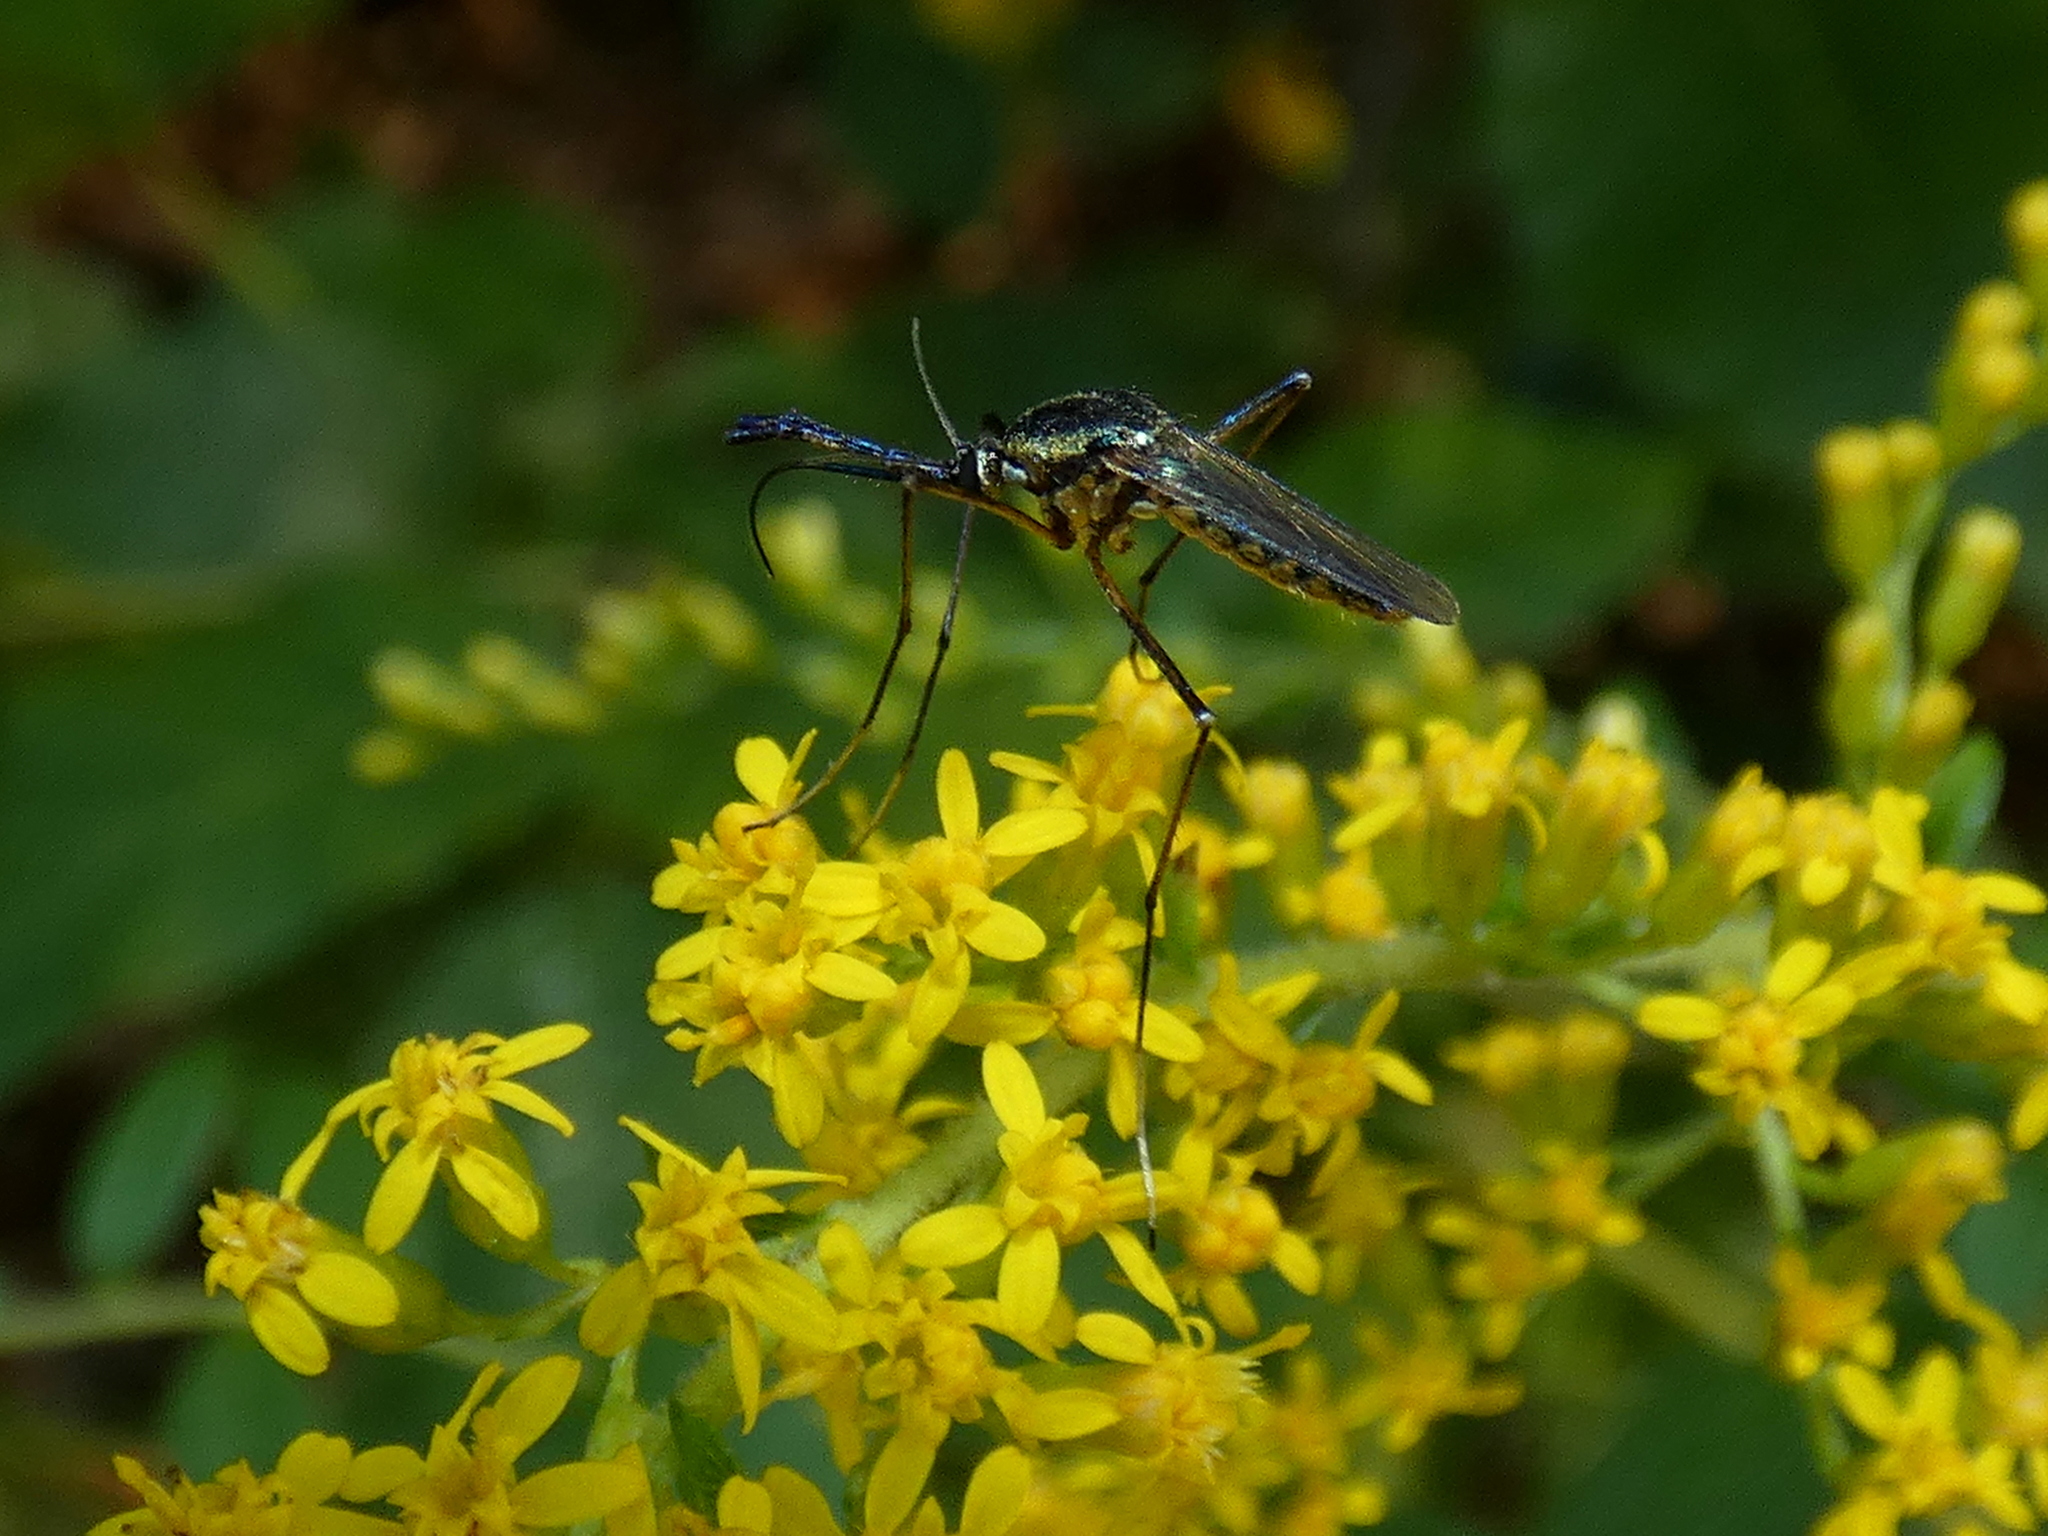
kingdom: Animalia
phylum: Arthropoda
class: Insecta
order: Diptera
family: Culicidae
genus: Toxorhynchites
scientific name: Toxorhynchites rutilus
